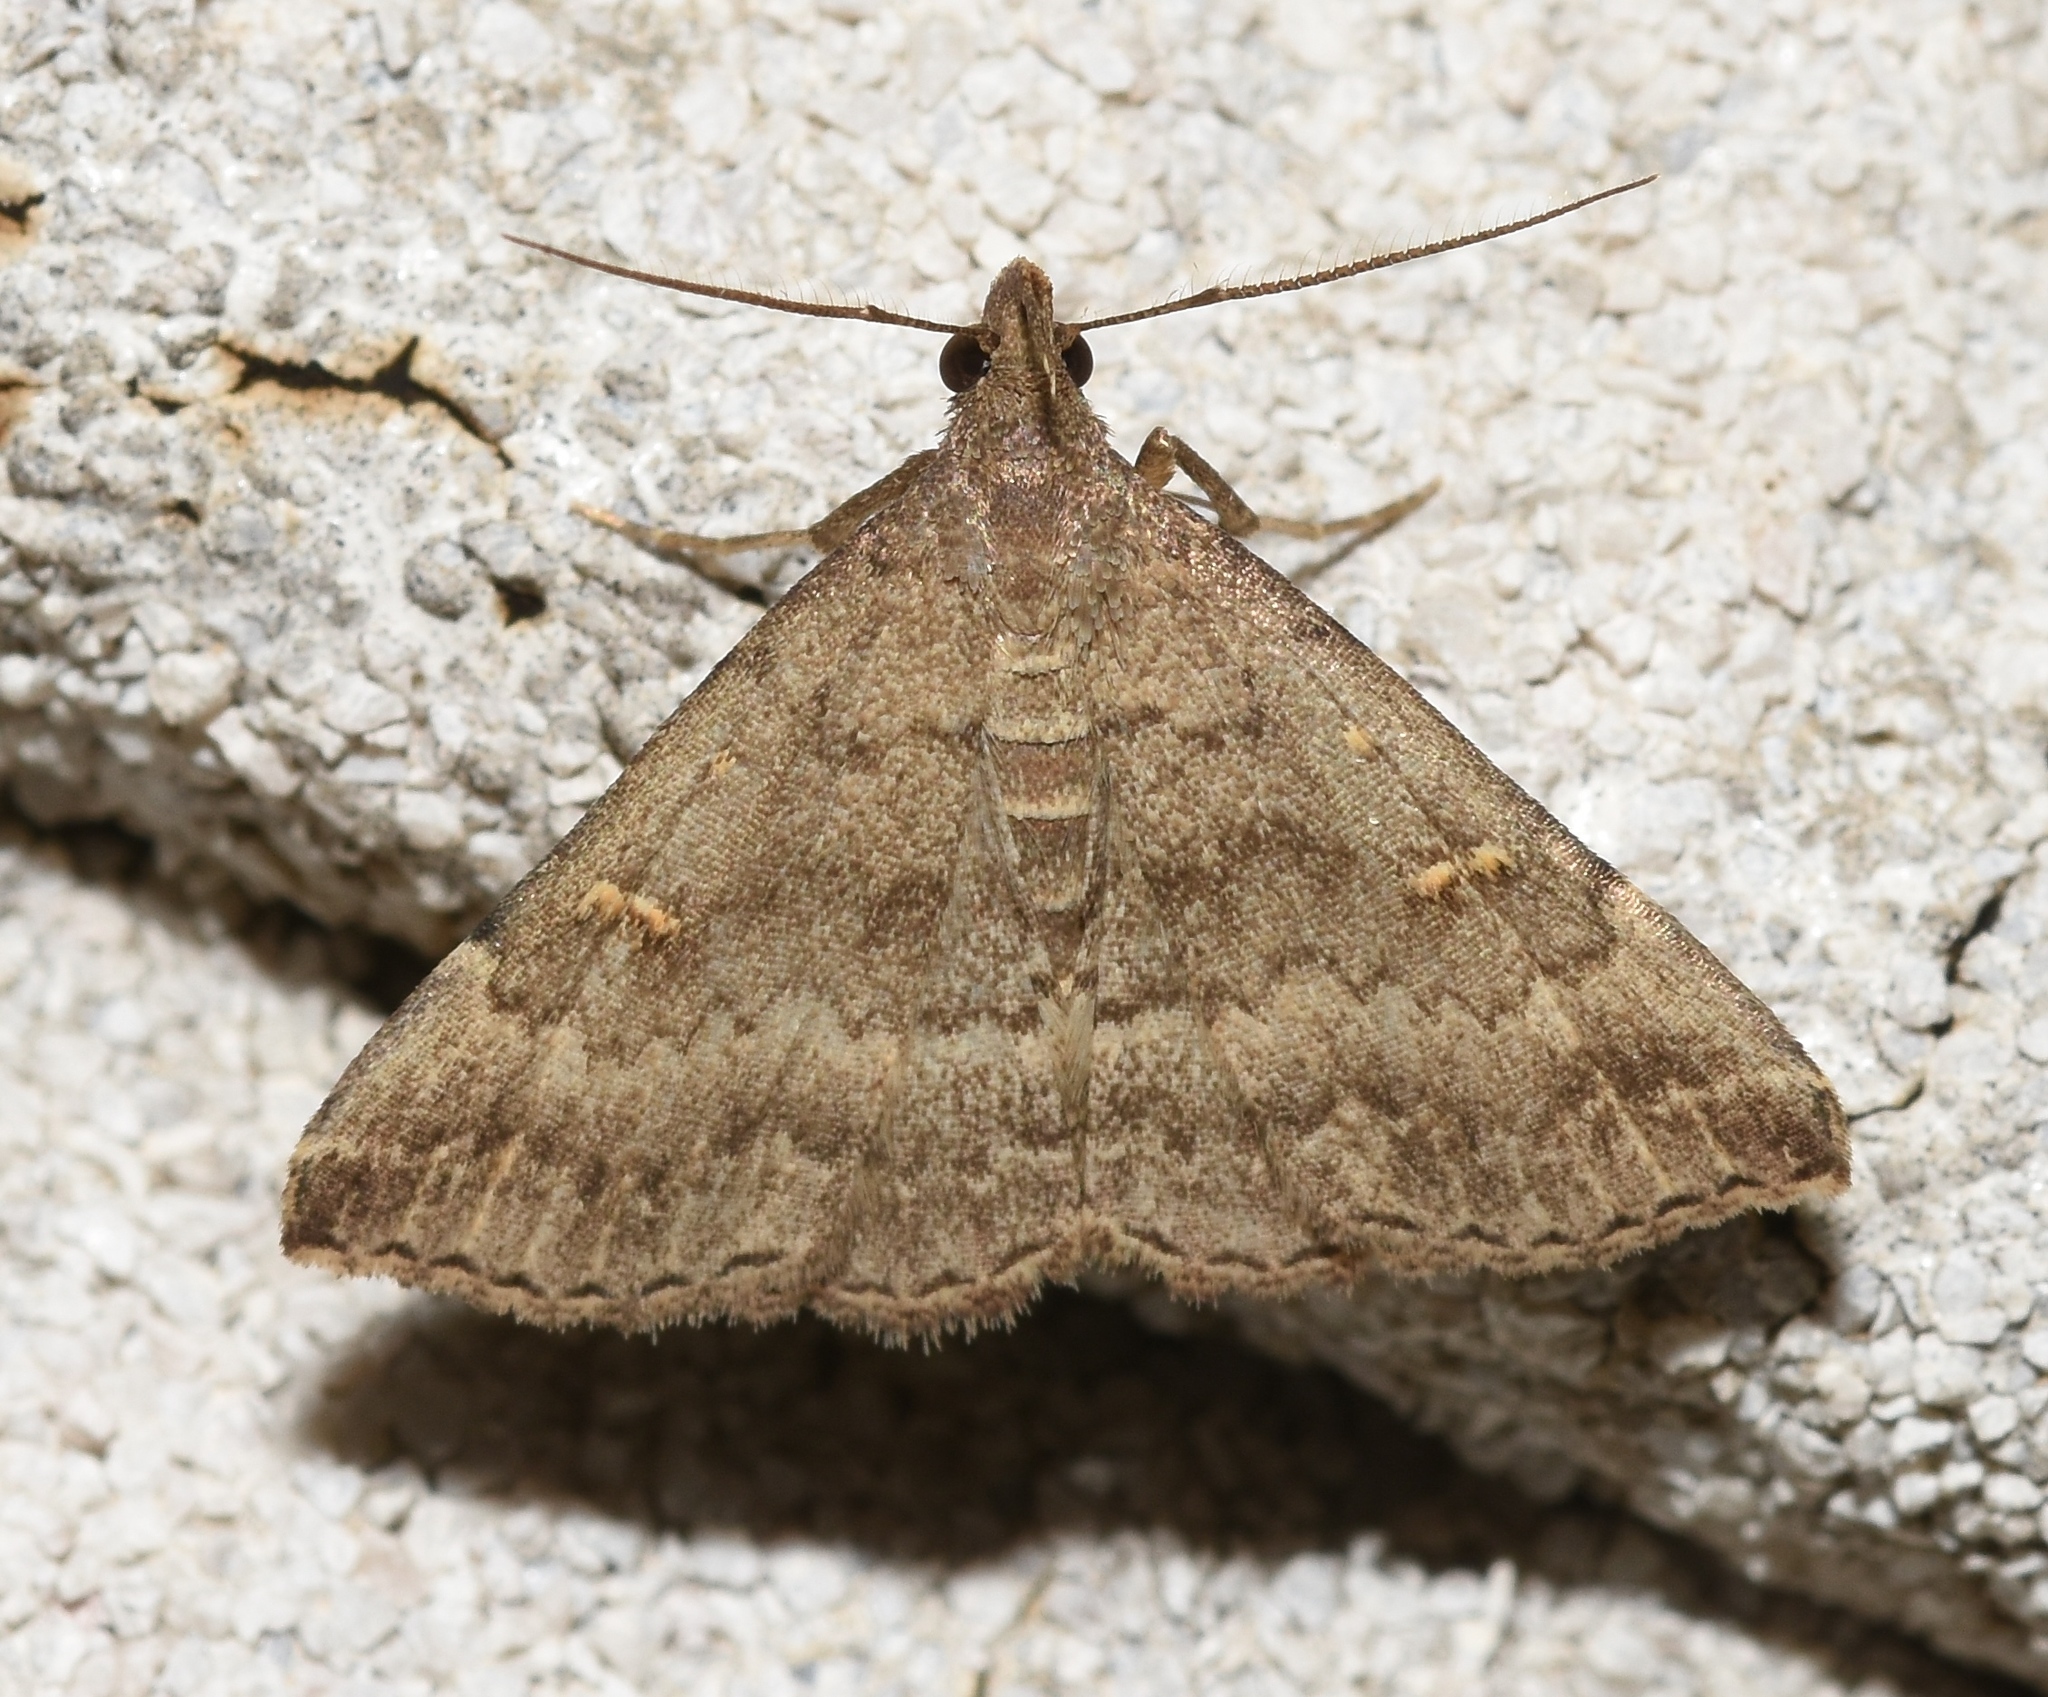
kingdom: Animalia
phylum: Arthropoda
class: Insecta
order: Lepidoptera
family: Erebidae
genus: Tetanolita
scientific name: Tetanolita floridana
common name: Florida tetanolita moth
